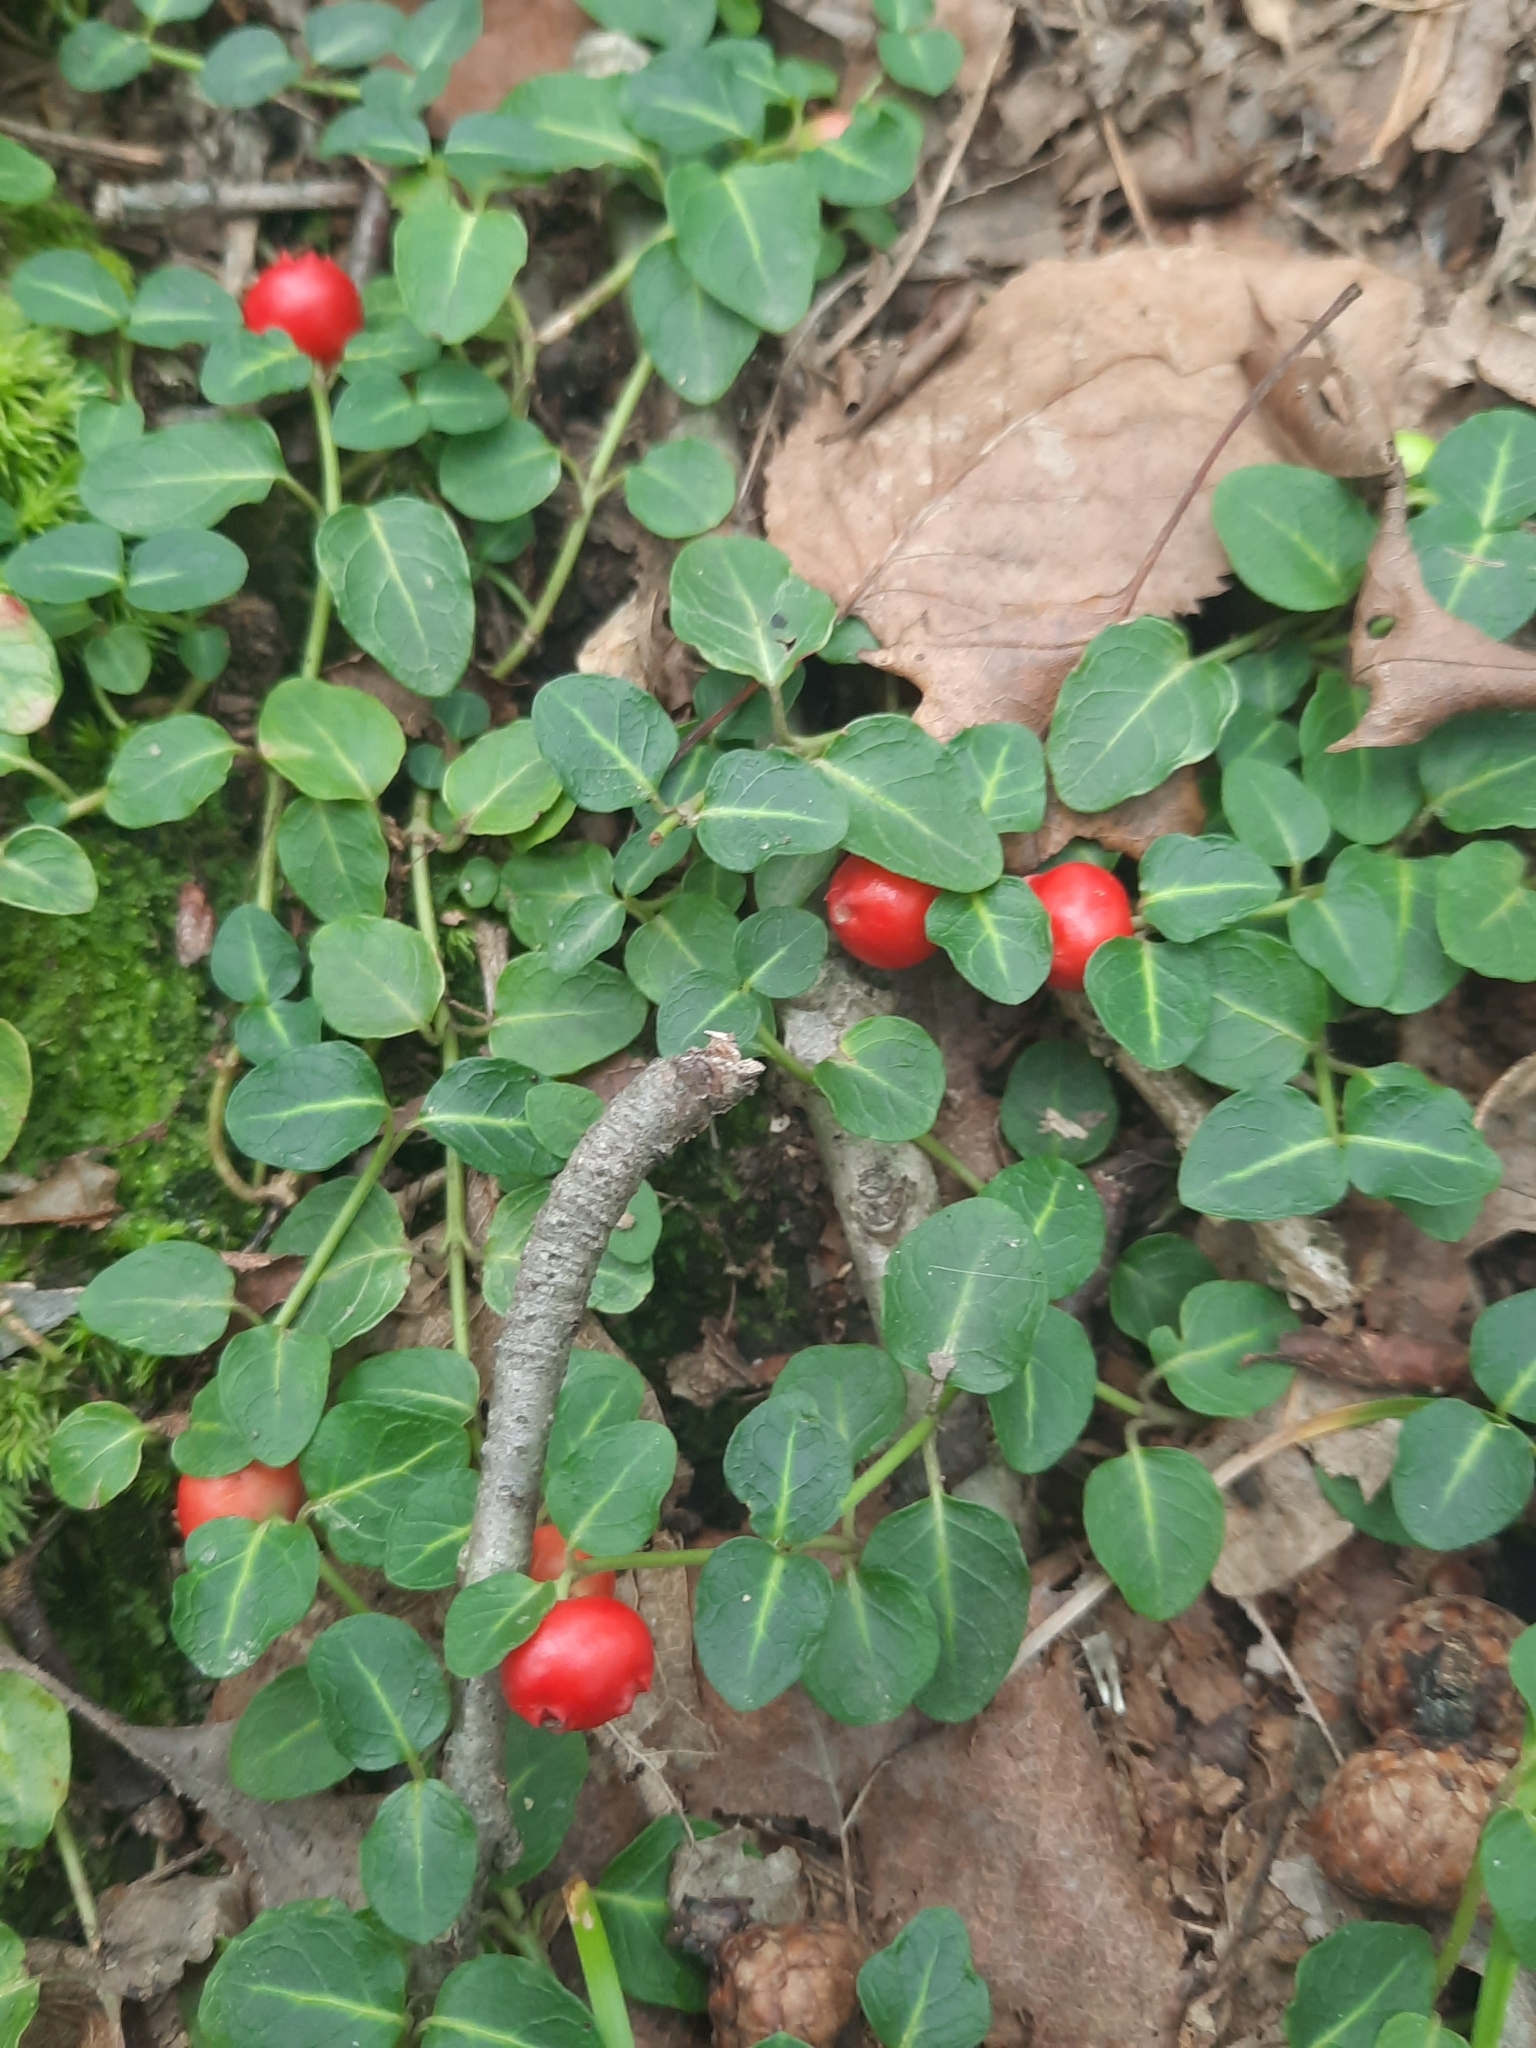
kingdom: Plantae
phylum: Tracheophyta
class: Magnoliopsida
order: Gentianales
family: Rubiaceae
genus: Mitchella
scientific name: Mitchella repens
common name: Partridge-berry
